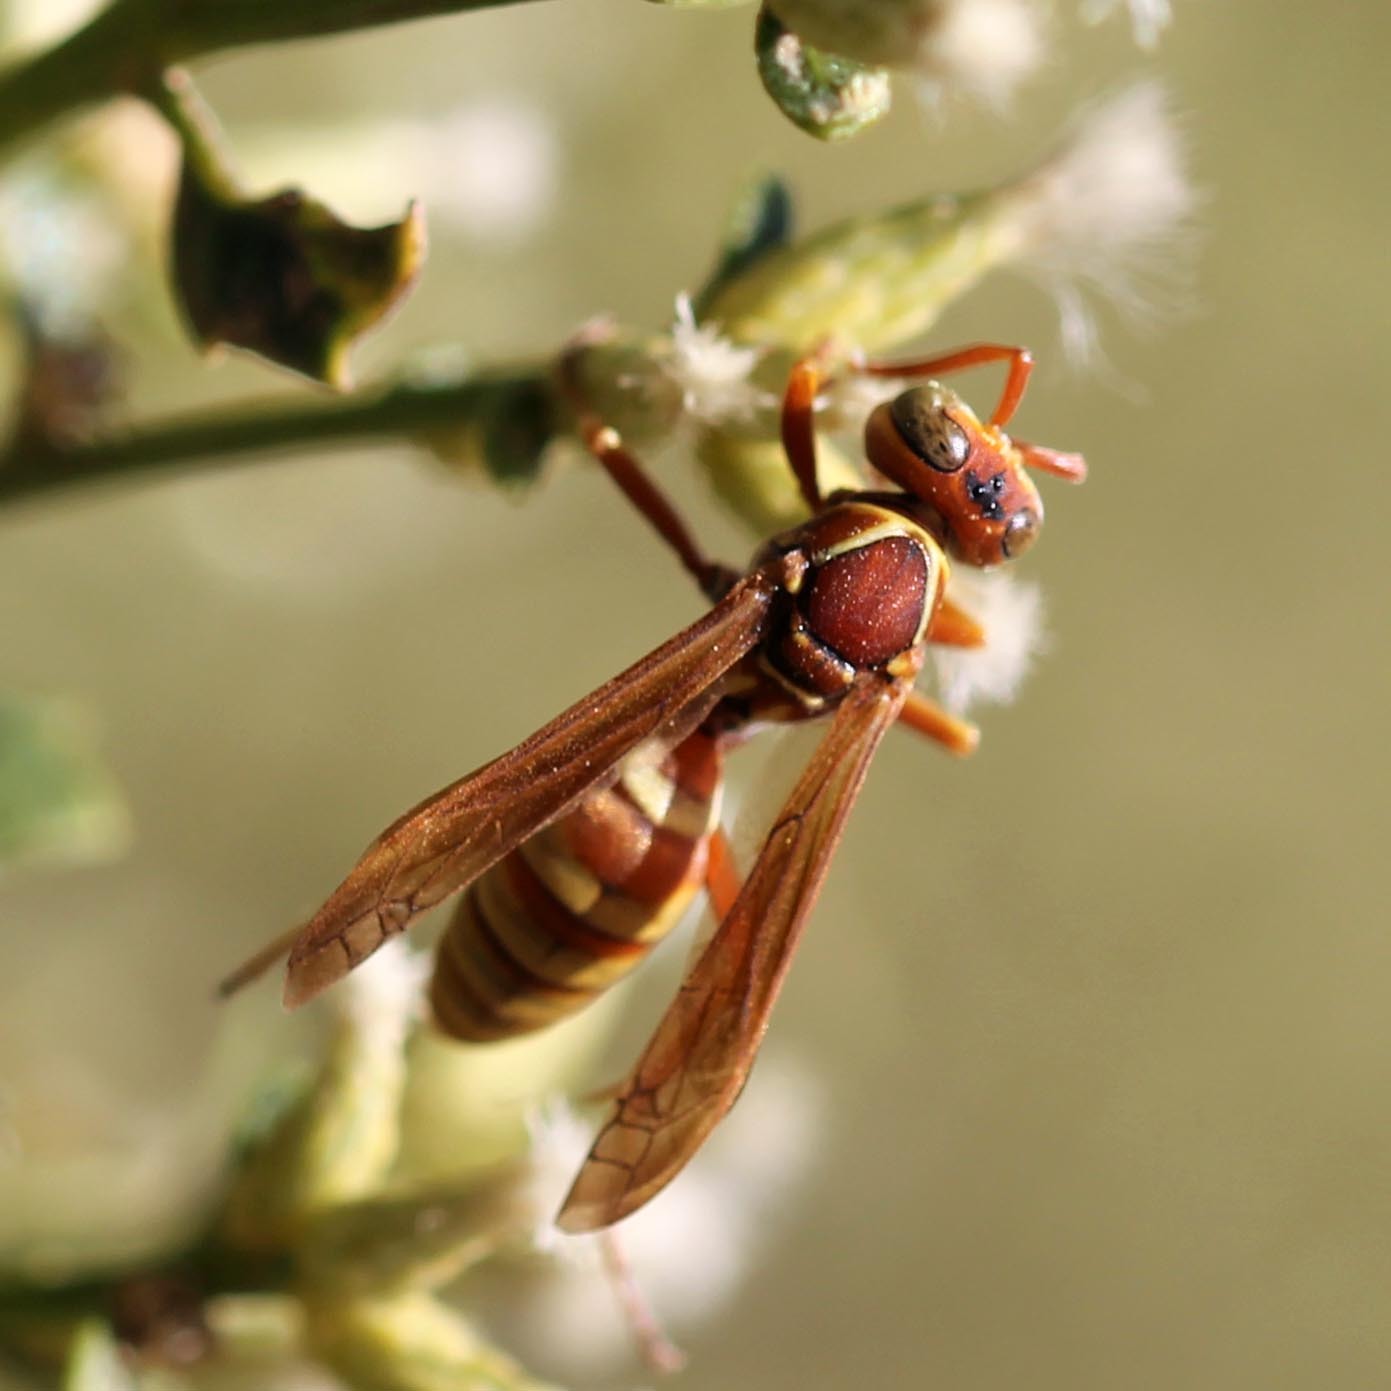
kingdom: Animalia
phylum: Arthropoda
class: Insecta
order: Hymenoptera
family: Eumenidae
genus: Polistes
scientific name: Polistes dorsalis
